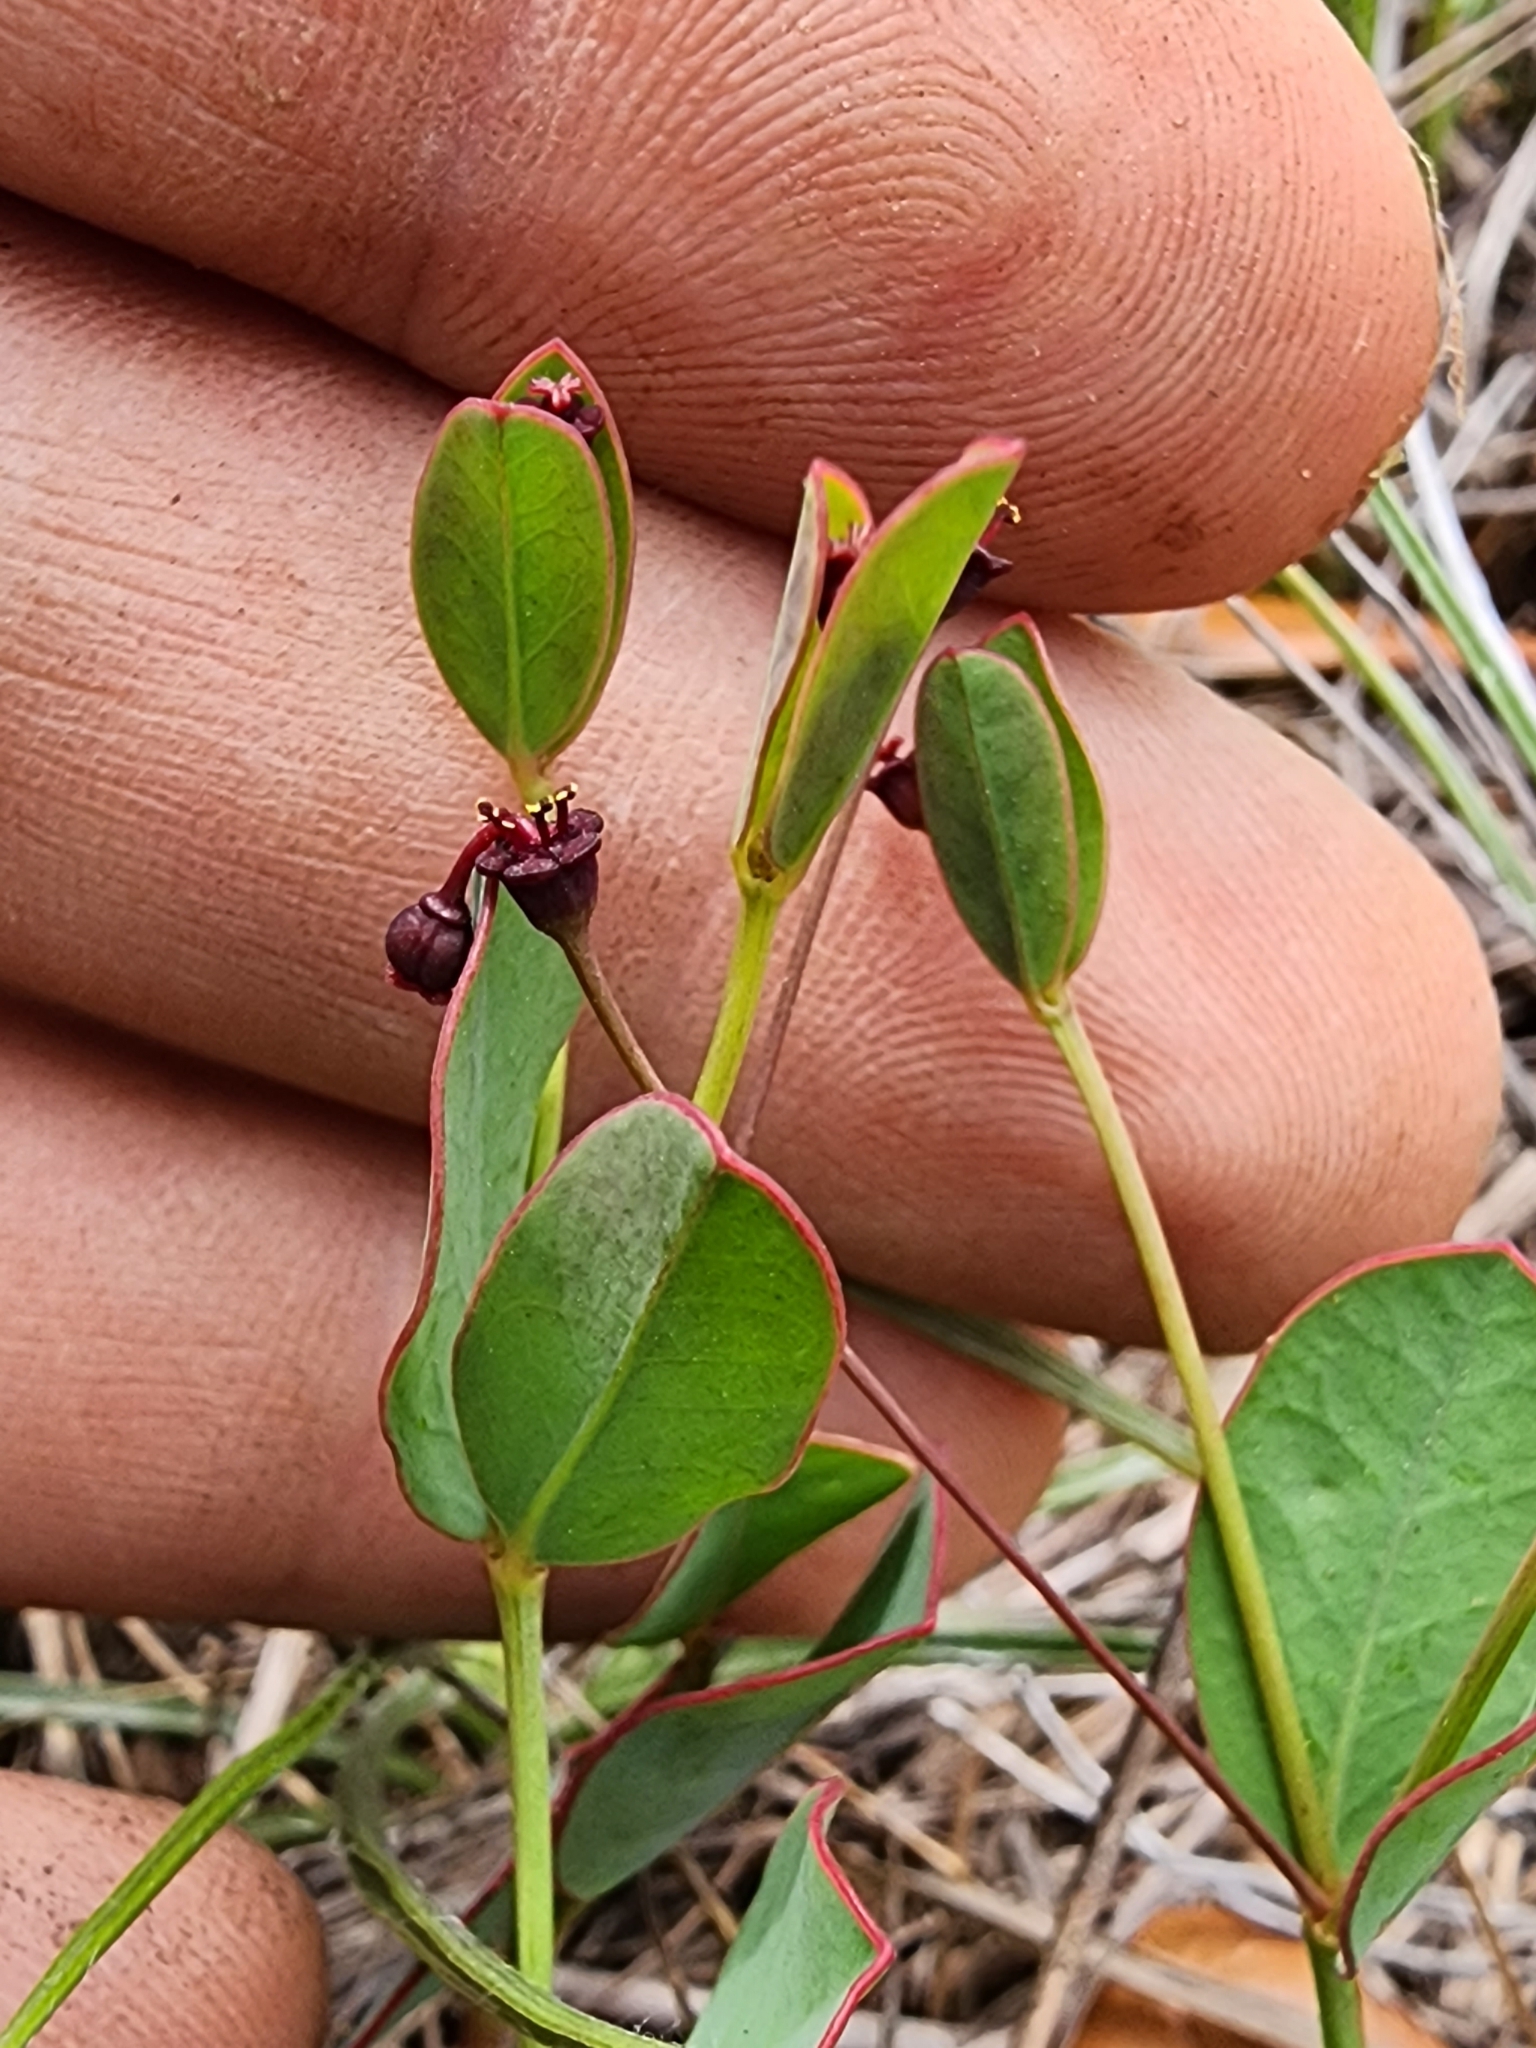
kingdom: Plantae
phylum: Tracheophyta
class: Magnoliopsida
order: Malpighiales
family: Euphorbiaceae
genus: Euphorbia
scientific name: Euphorbia exserta
